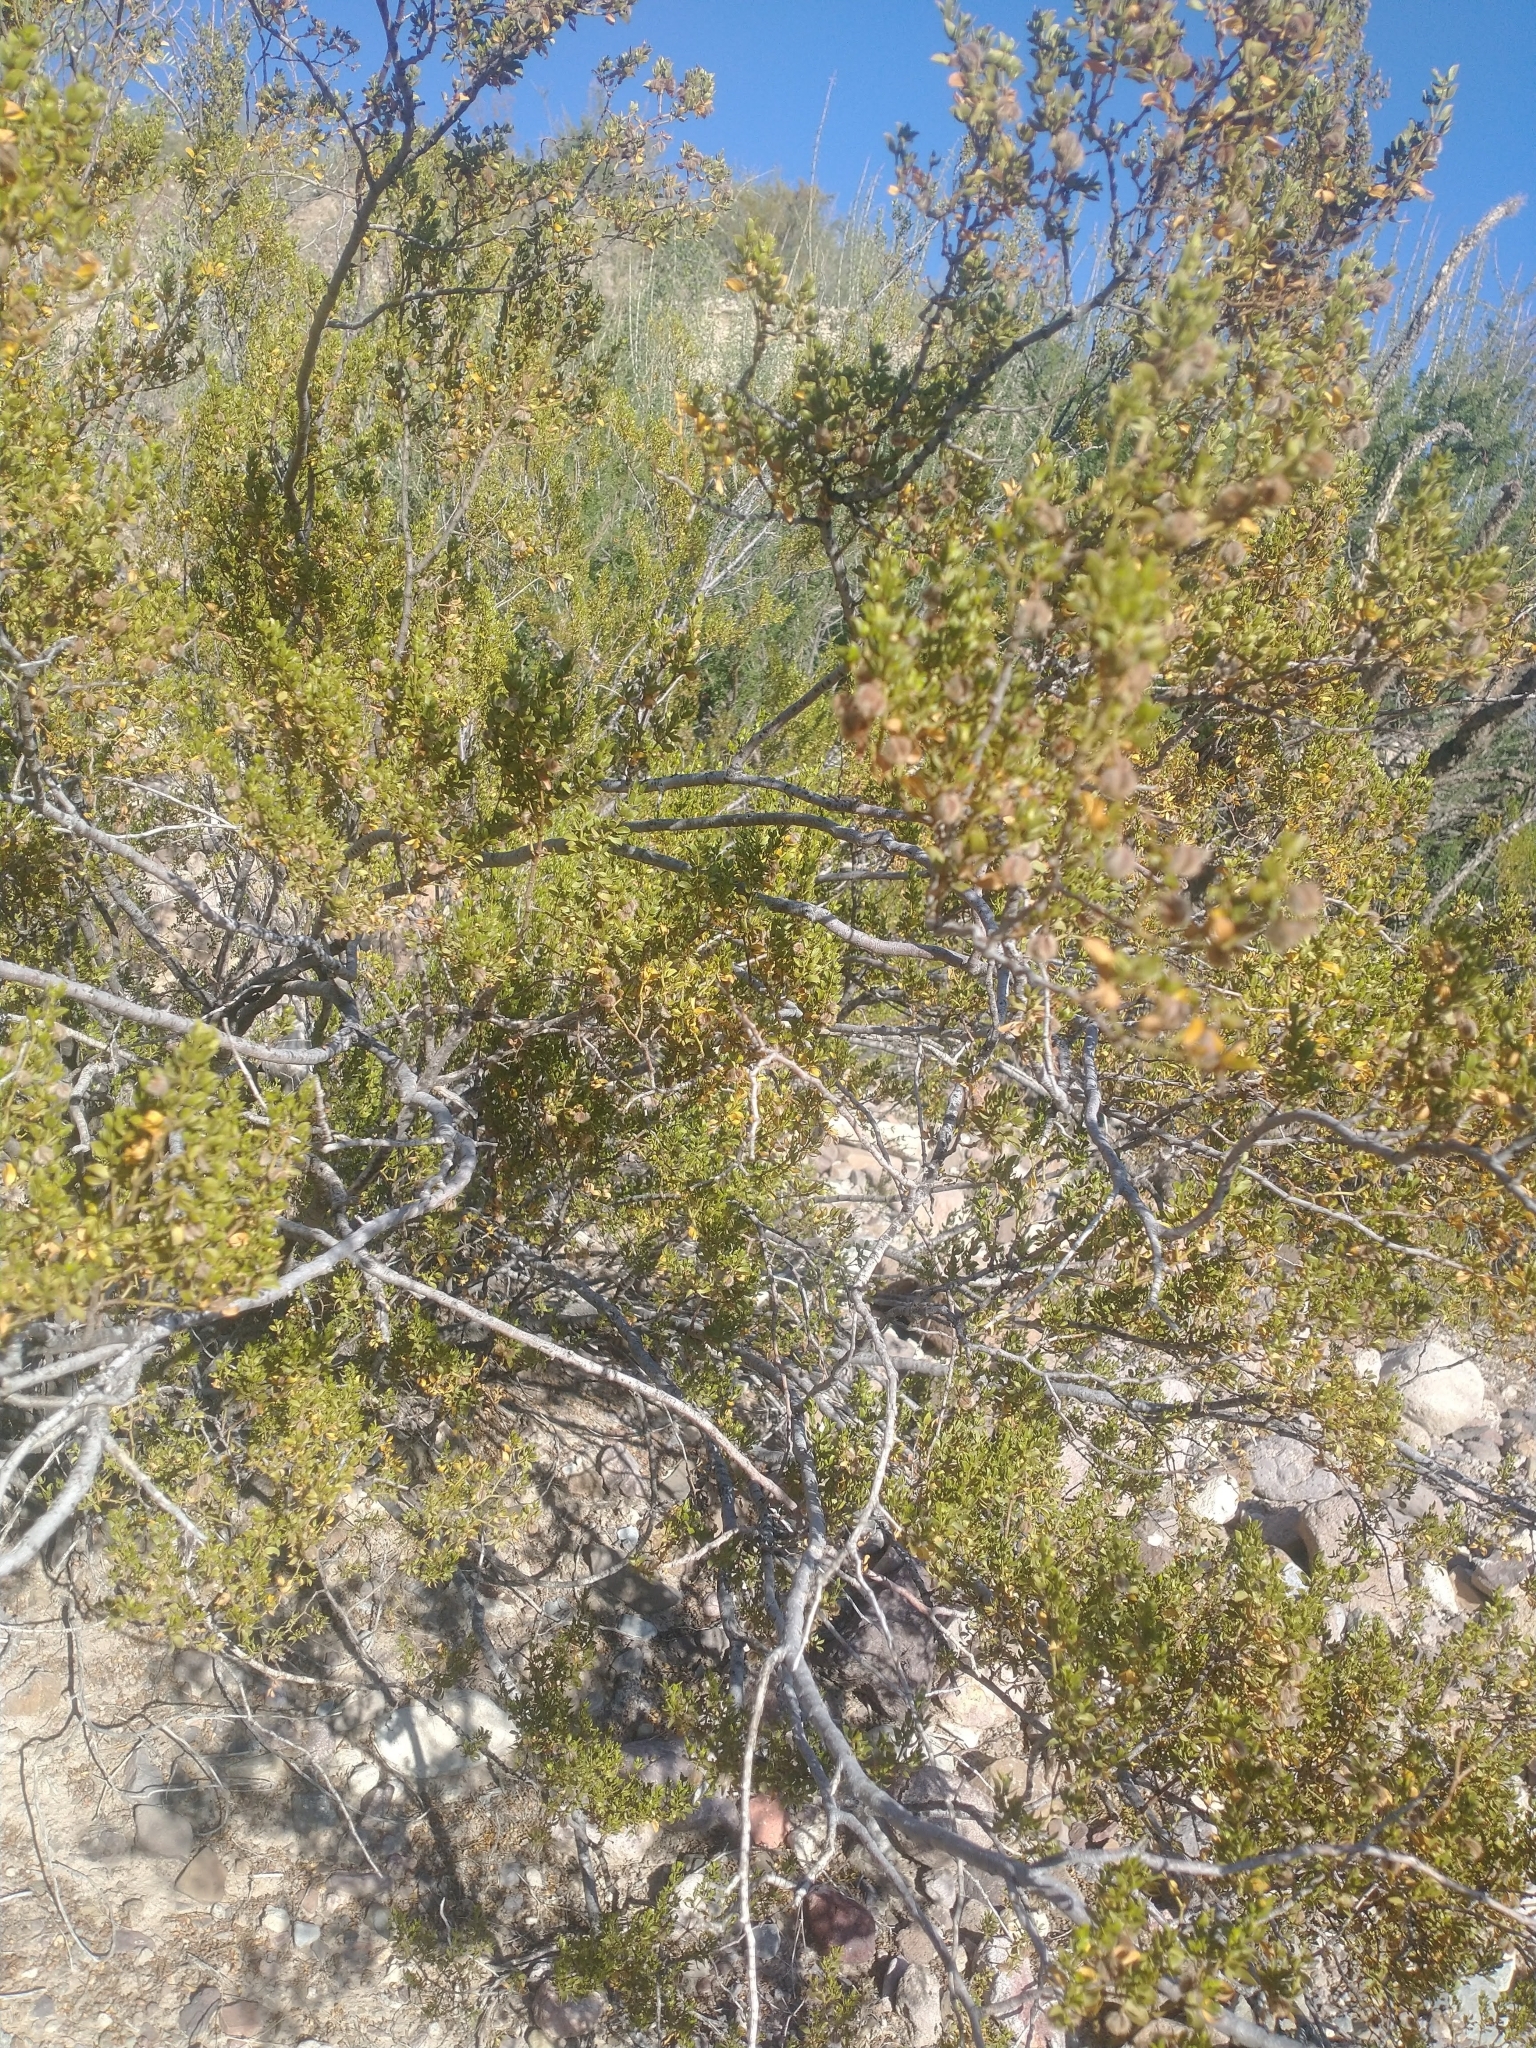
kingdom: Plantae
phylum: Tracheophyta
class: Magnoliopsida
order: Zygophyllales
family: Zygophyllaceae
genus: Larrea
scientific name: Larrea tridentata
